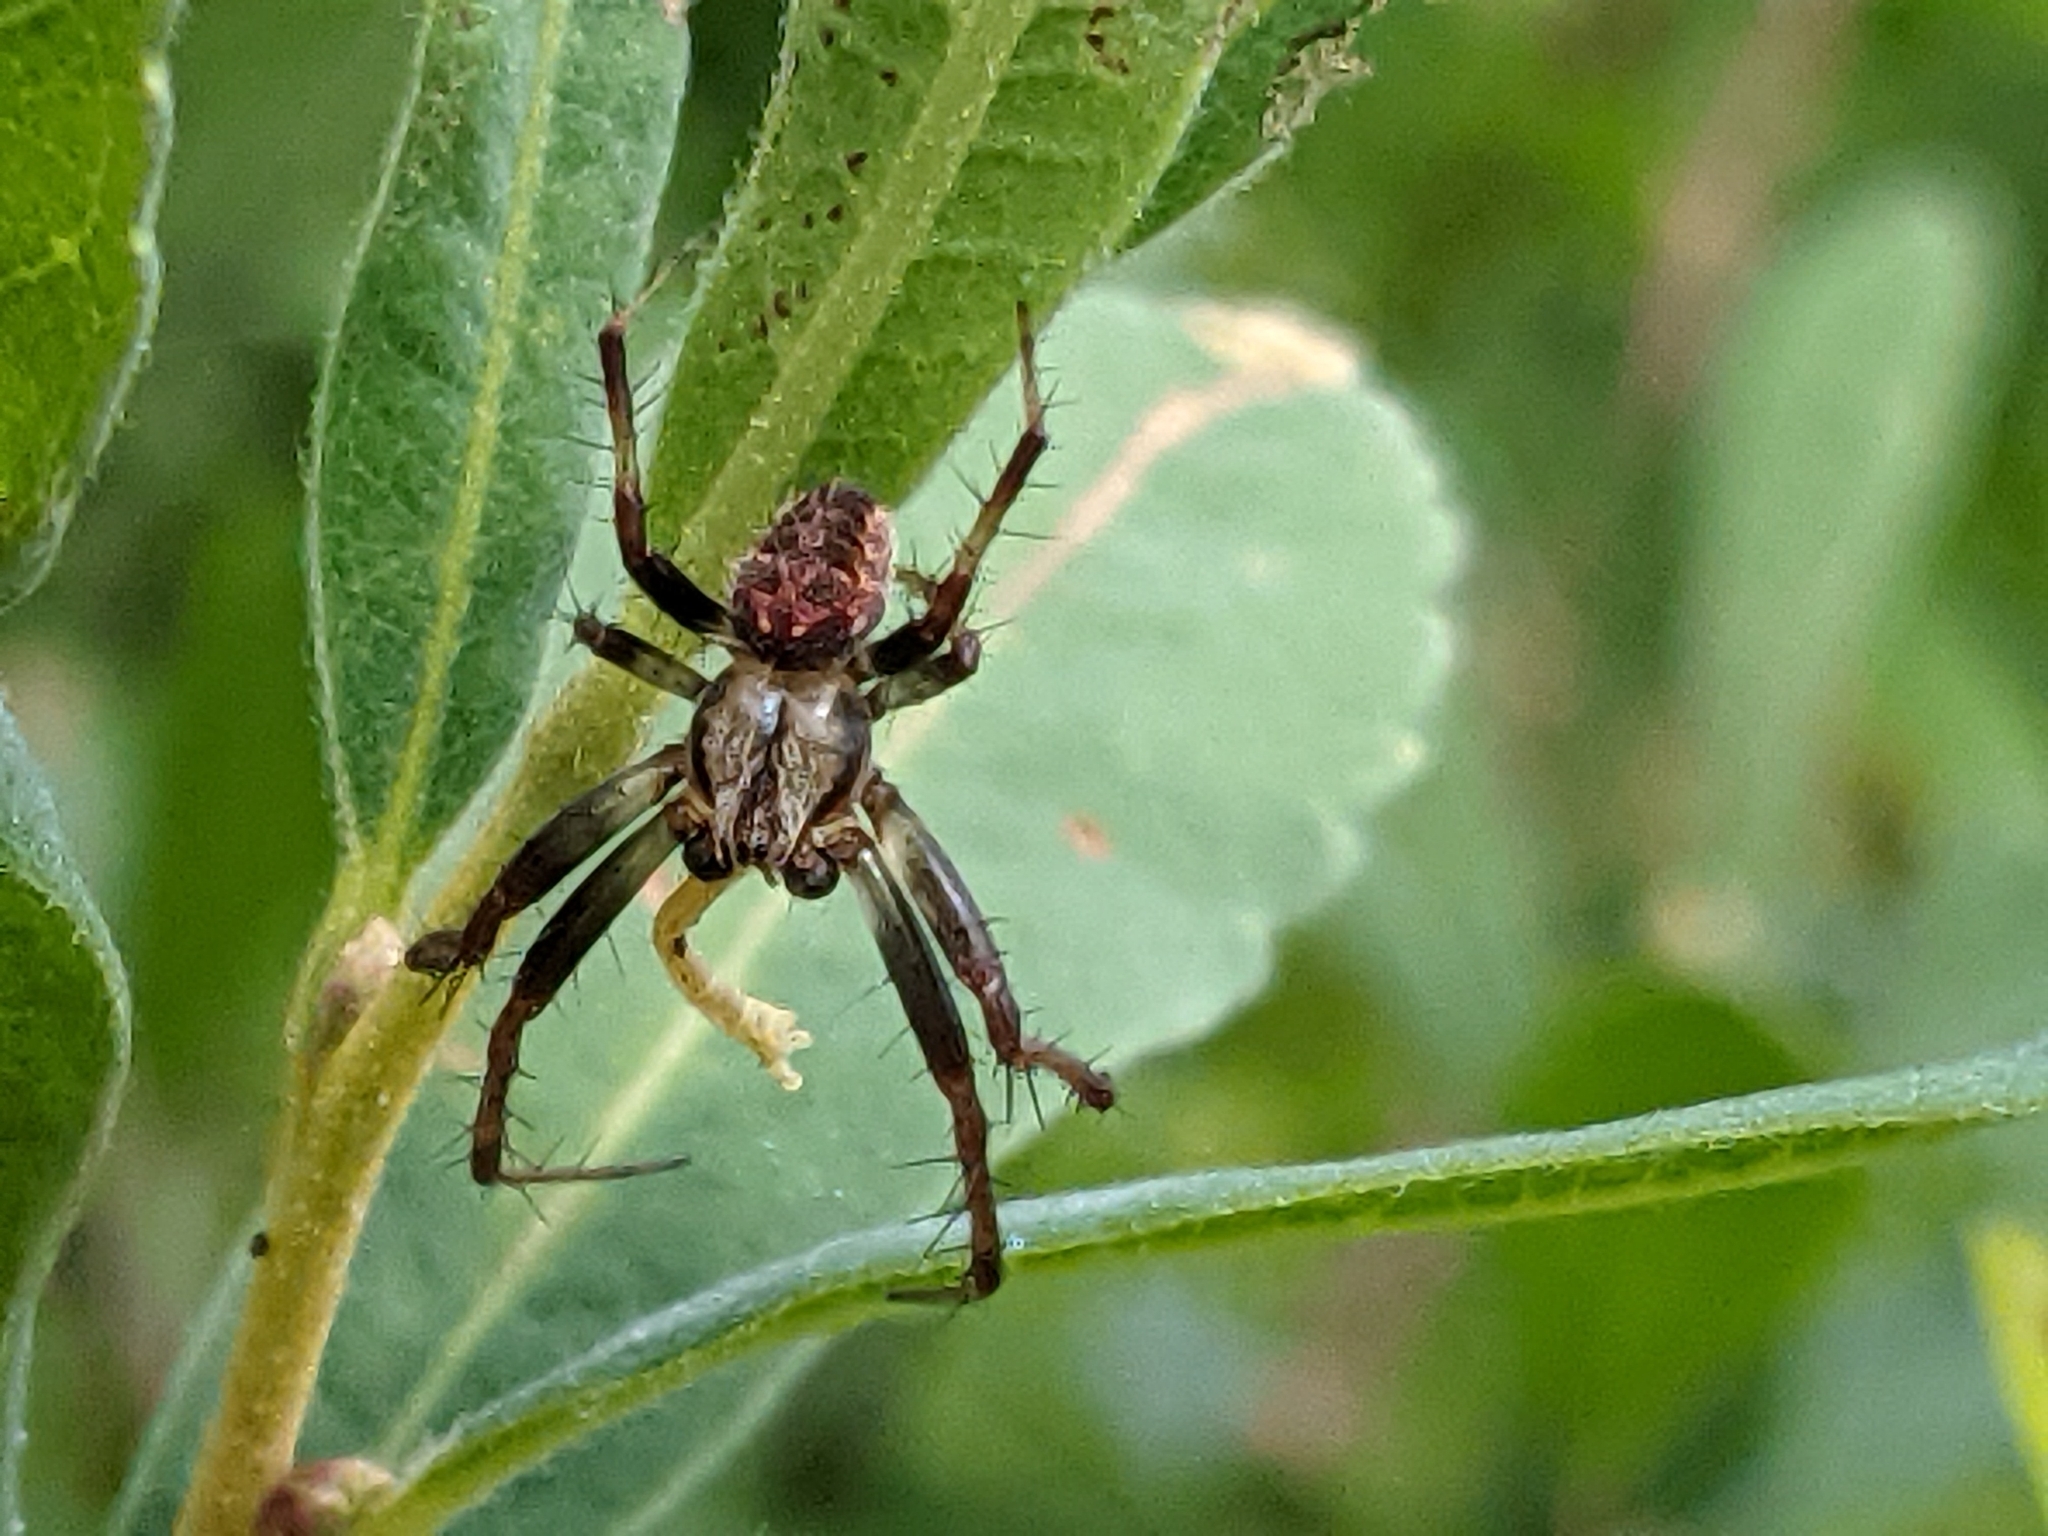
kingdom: Animalia
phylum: Arthropoda
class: Arachnida
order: Araneae
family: Araneidae
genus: Neoscona
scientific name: Neoscona arabesca
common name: Orb weavers
